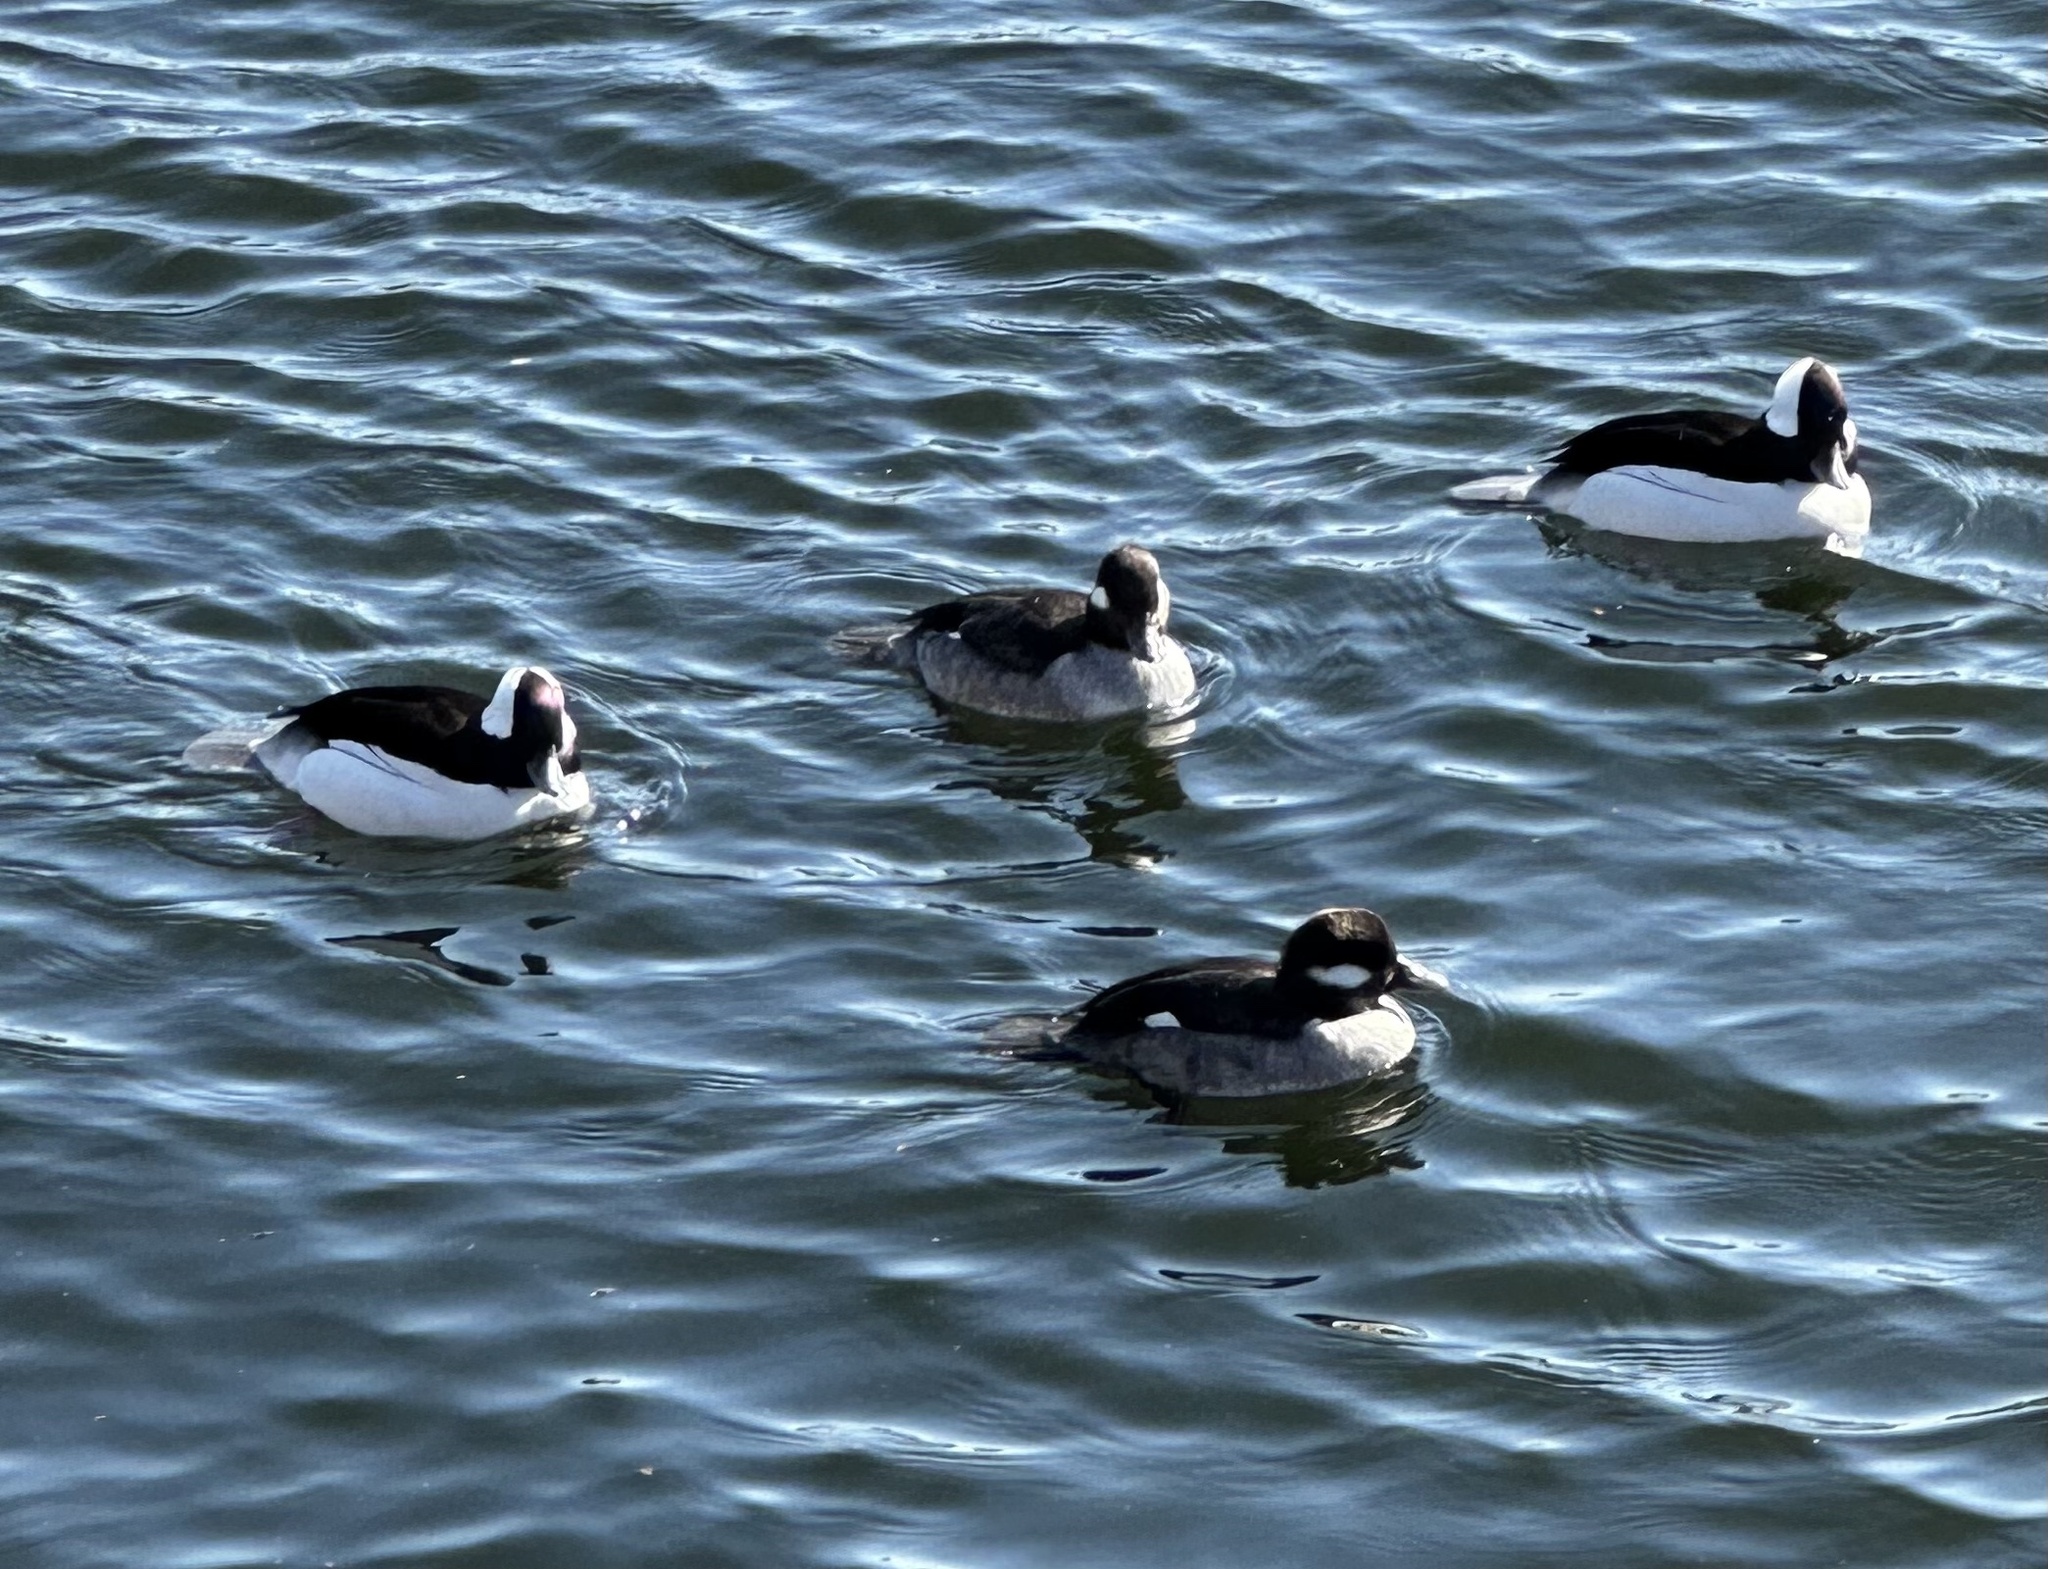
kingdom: Animalia
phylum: Chordata
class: Aves
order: Anseriformes
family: Anatidae
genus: Bucephala
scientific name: Bucephala albeola
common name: Bufflehead
